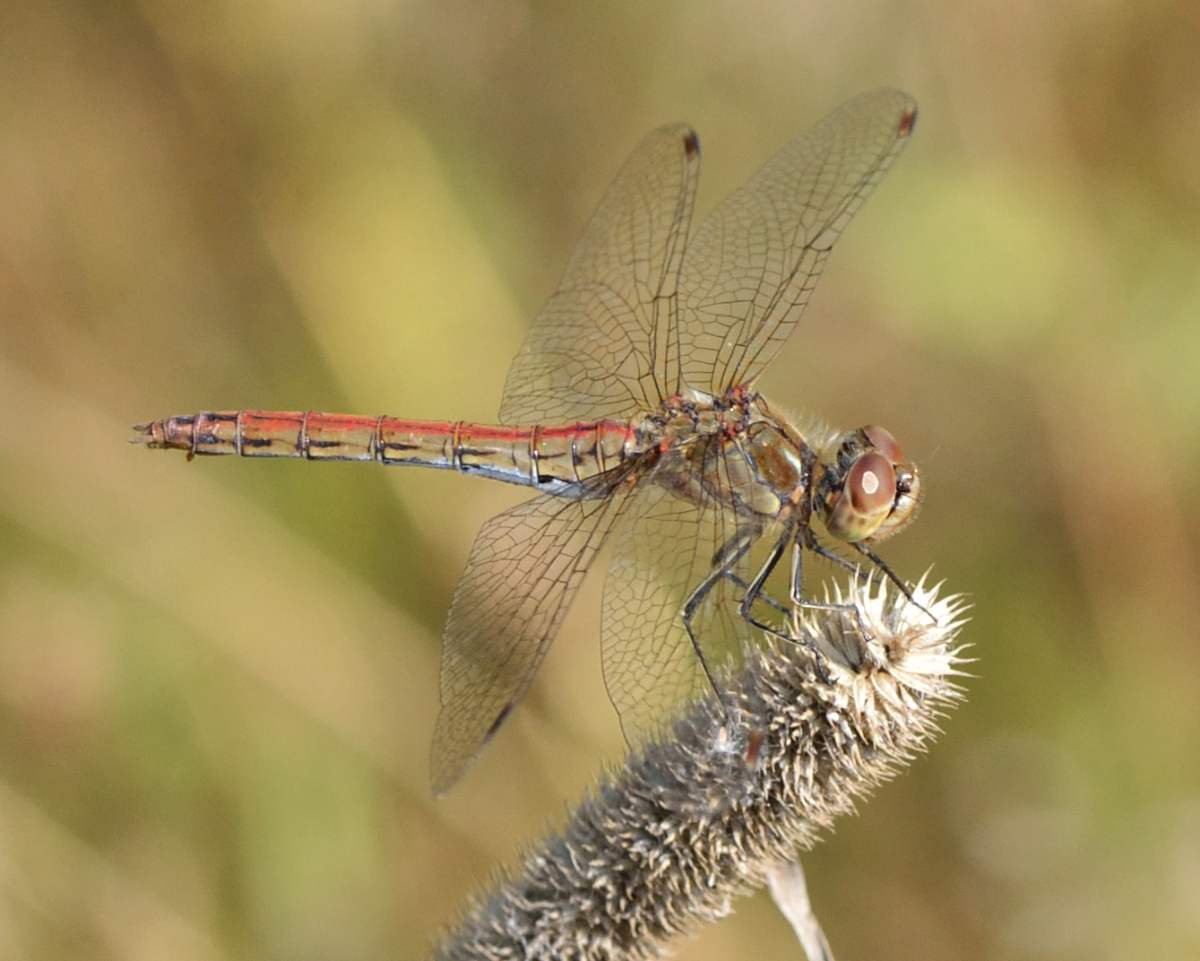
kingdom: Animalia
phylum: Arthropoda
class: Insecta
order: Odonata
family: Libellulidae
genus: Sympetrum
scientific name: Sympetrum vulgatum
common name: Vagrant darter
